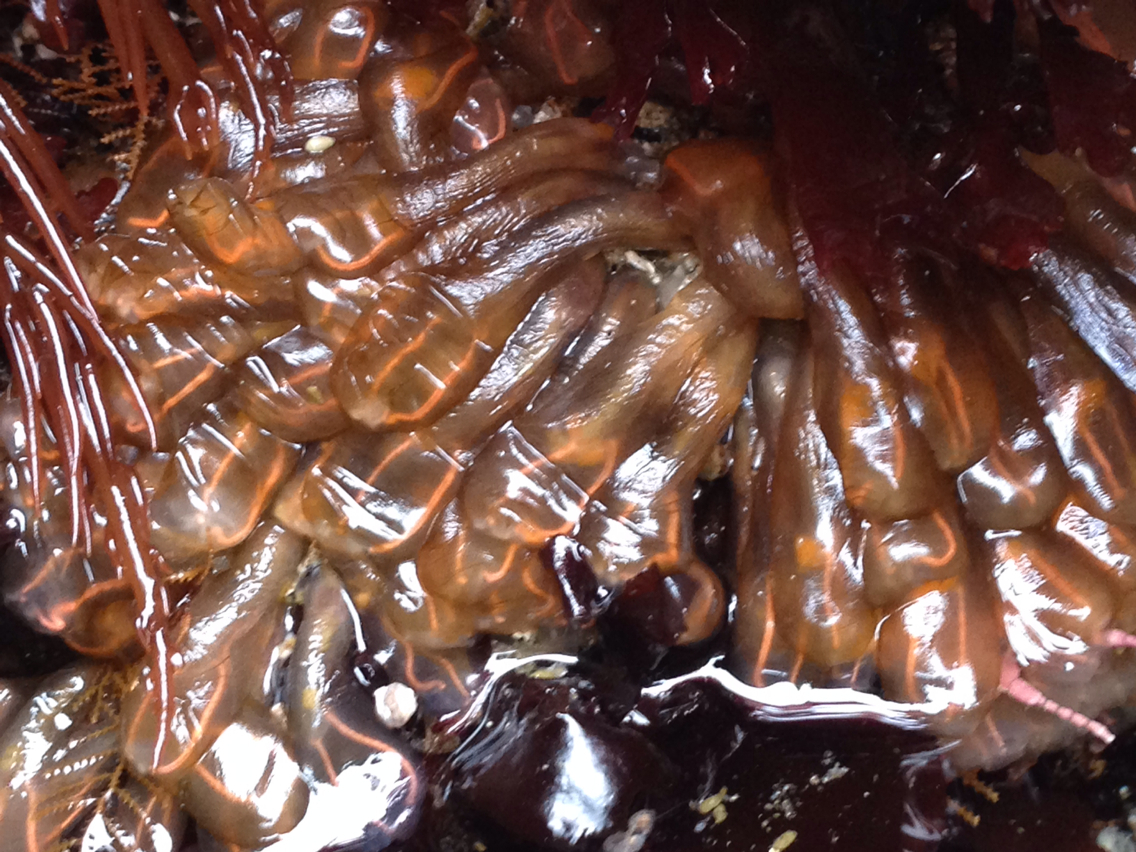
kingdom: Animalia
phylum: Chordata
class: Ascidiacea
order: Aplousobranchia
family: Clavelinidae
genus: Clavelina
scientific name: Clavelina huntsmani
